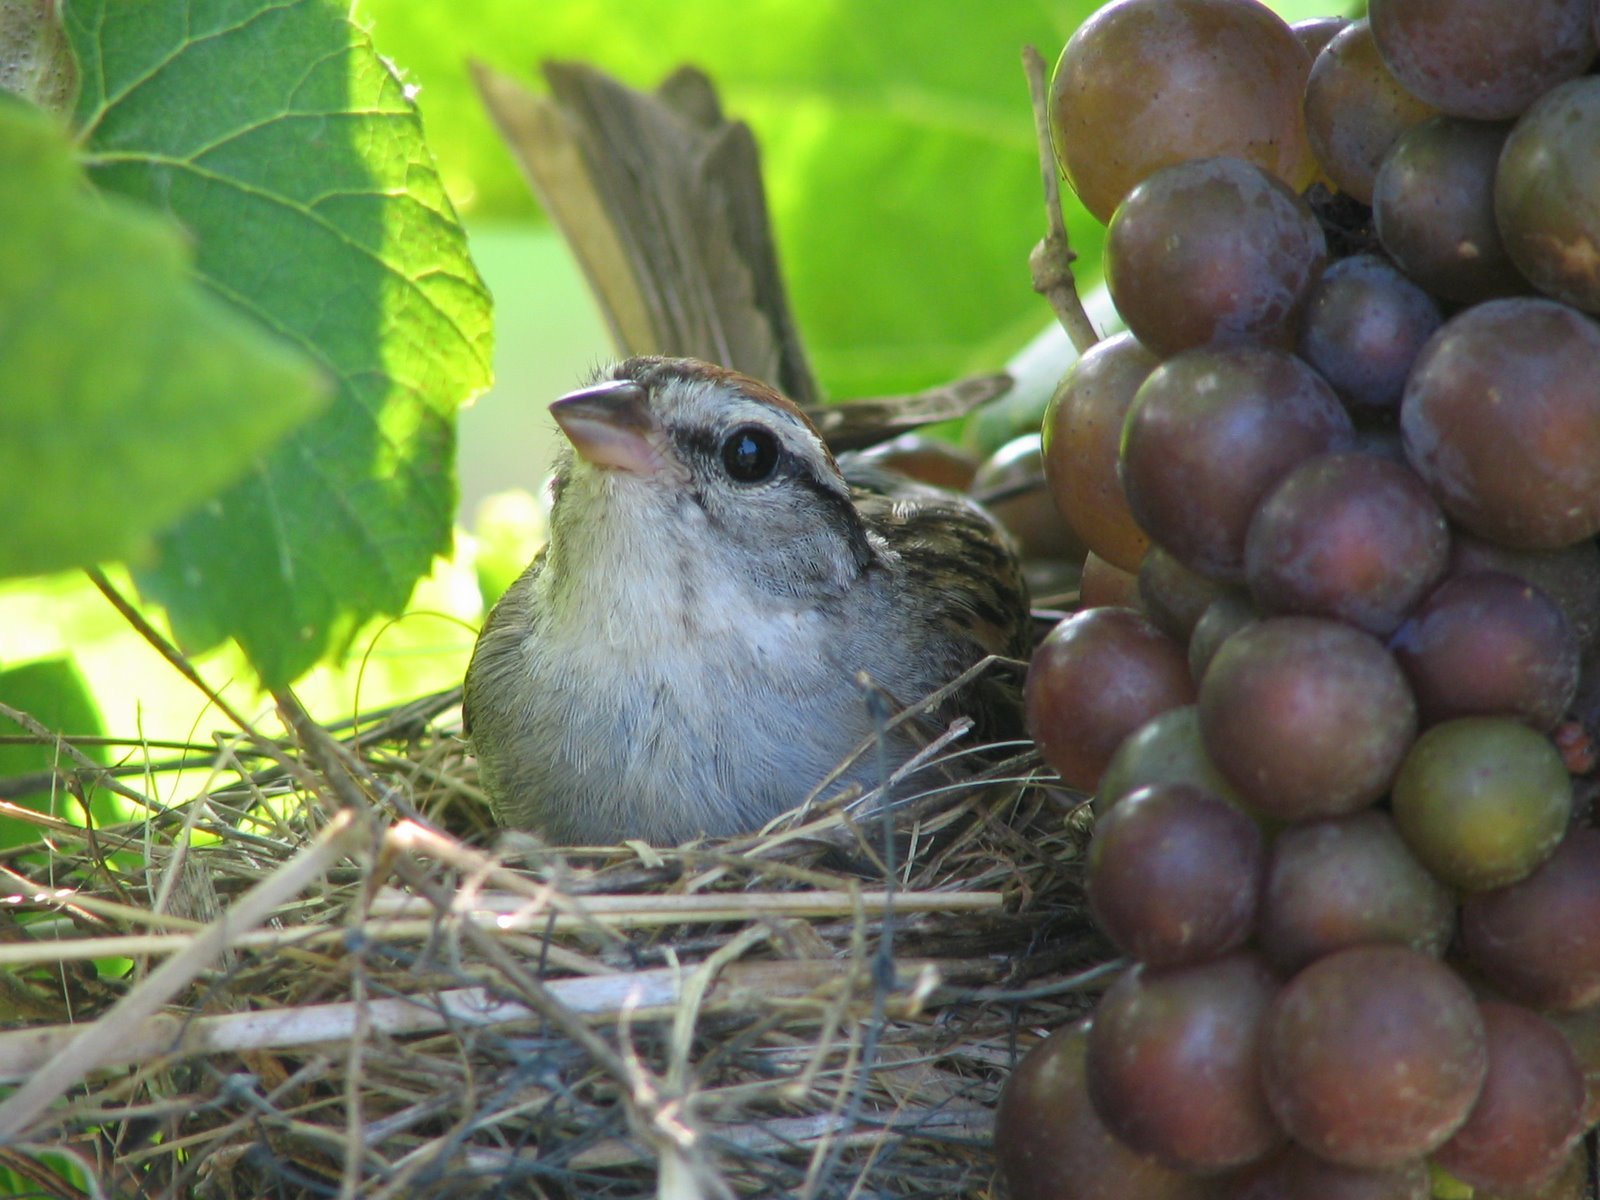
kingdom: Animalia
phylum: Chordata
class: Aves
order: Passeriformes
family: Passerellidae
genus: Spizella
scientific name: Spizella passerina
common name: Chipping sparrow
